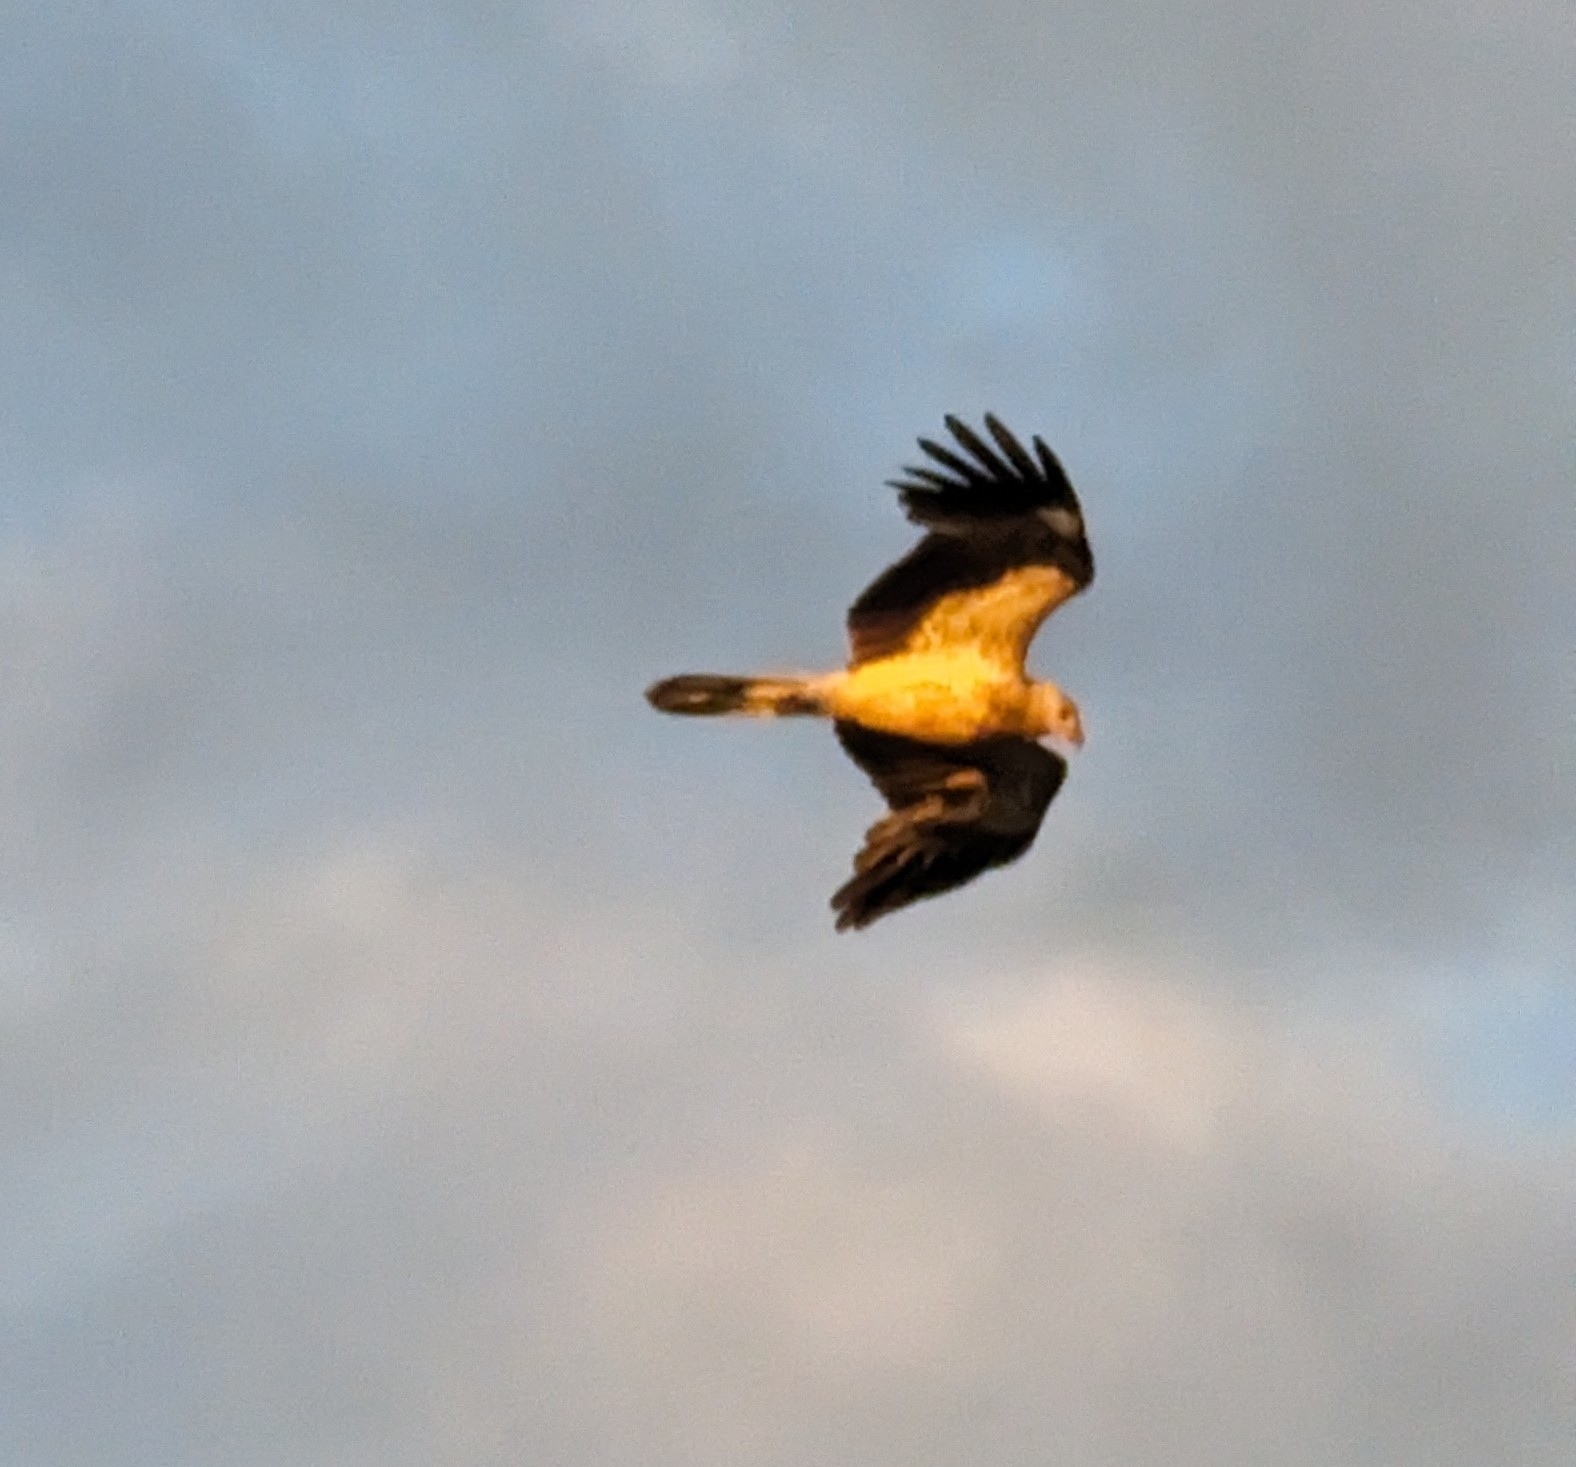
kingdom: Animalia
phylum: Chordata
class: Aves
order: Accipitriformes
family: Accipitridae
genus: Haliastur
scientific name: Haliastur sphenurus
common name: Whistling kite
